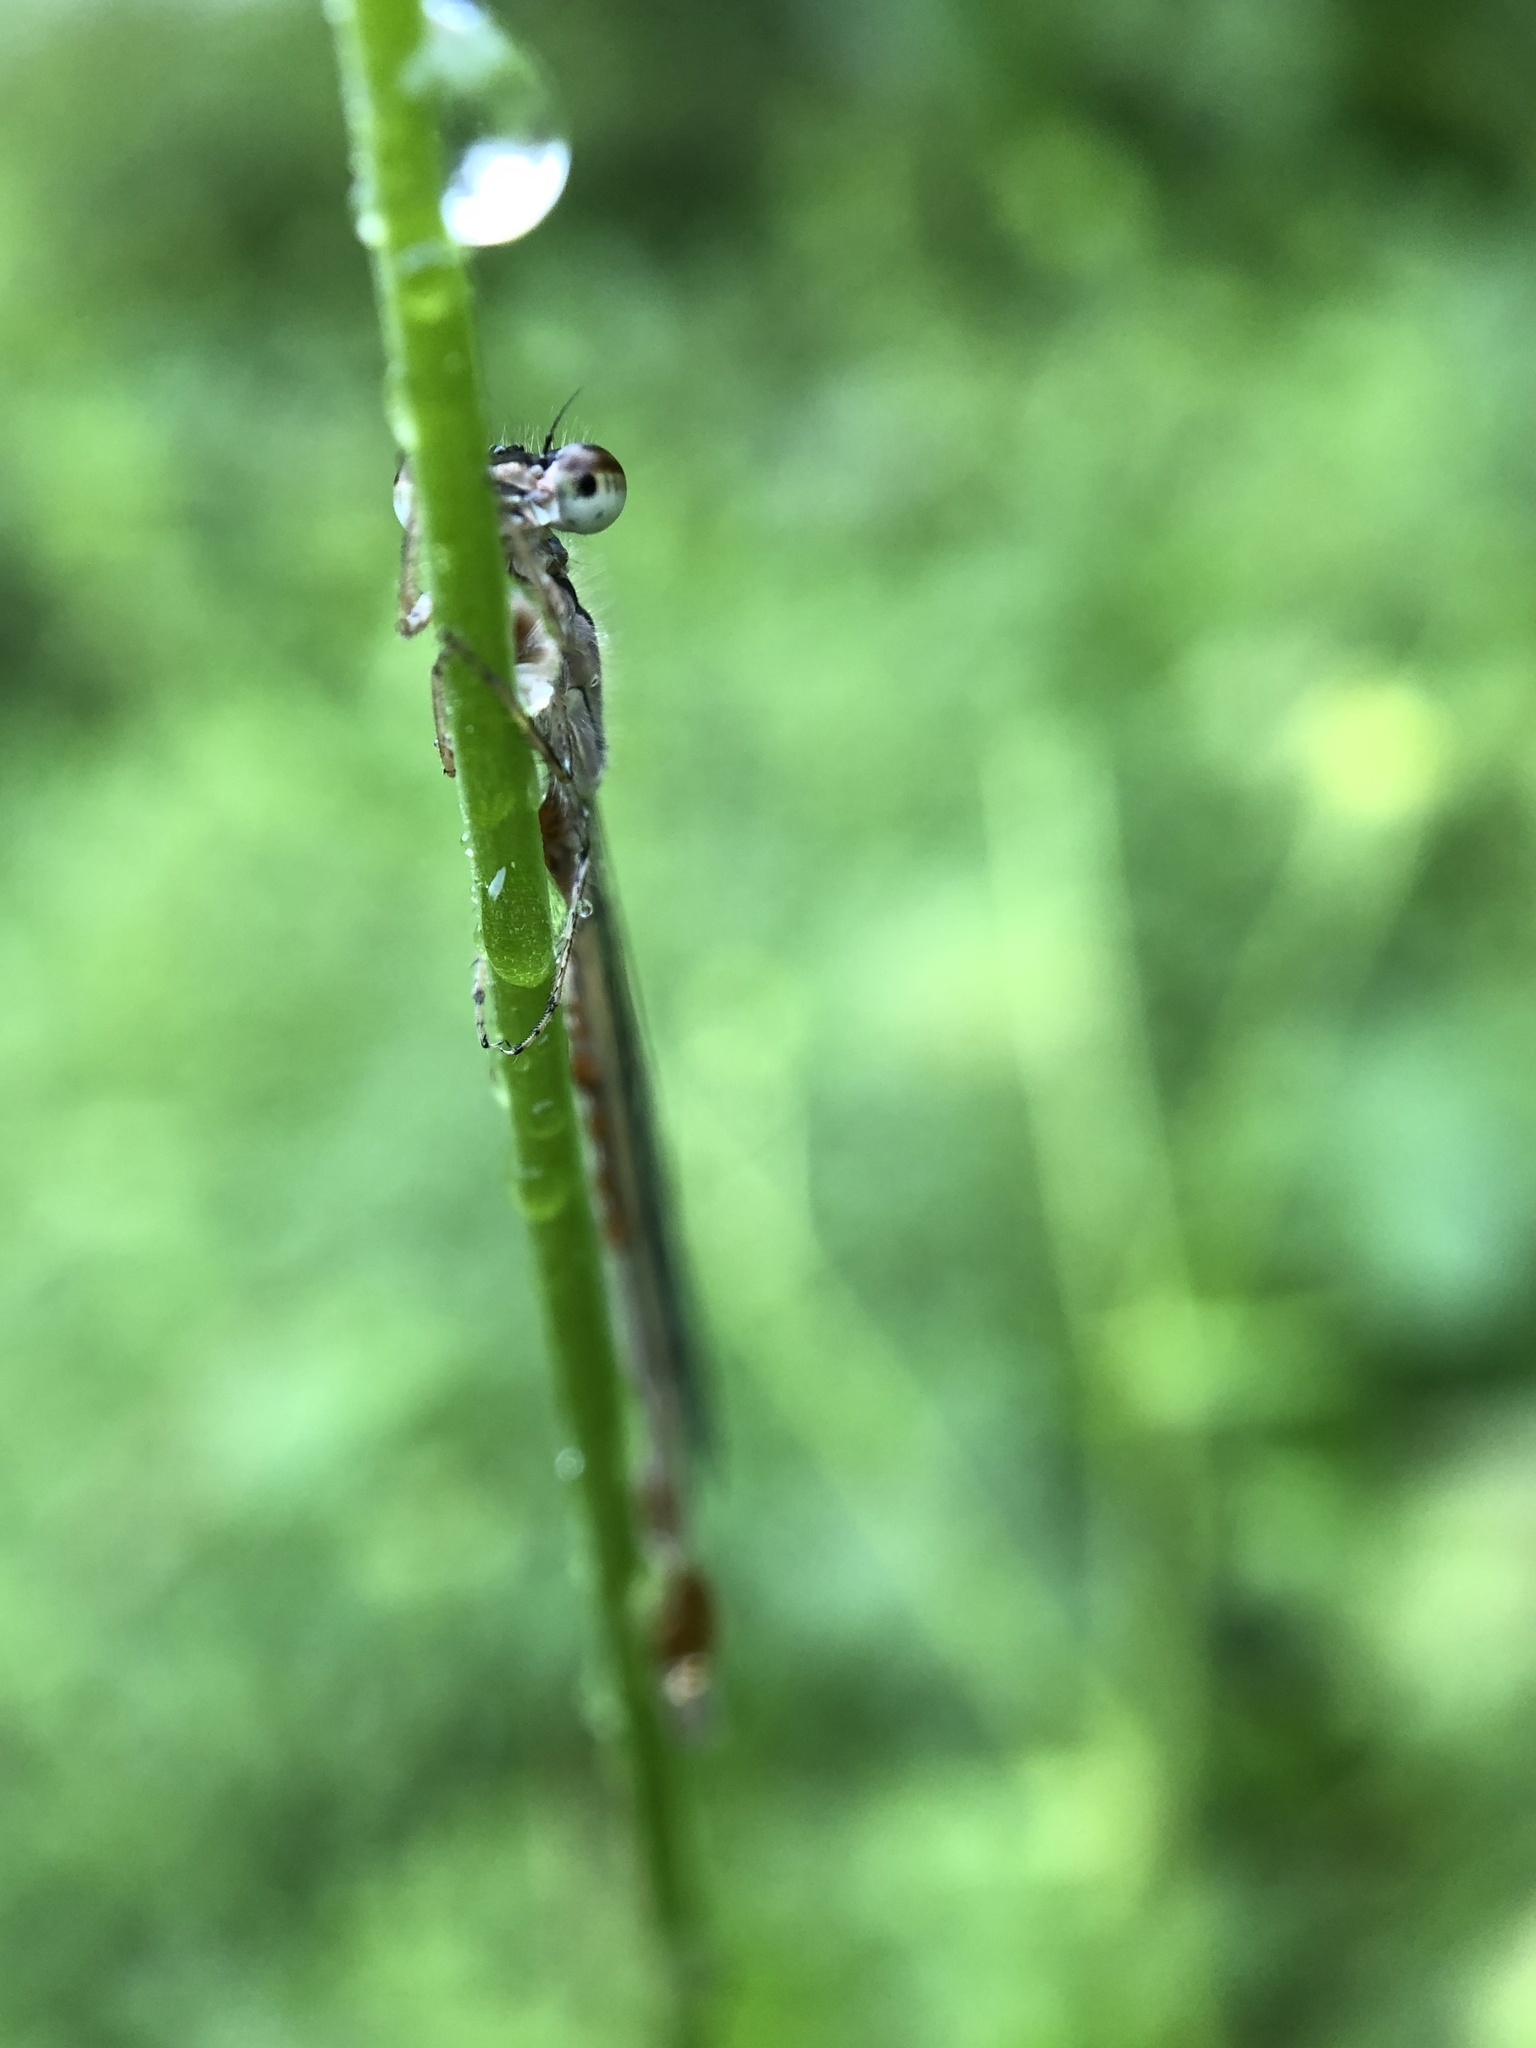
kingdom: Animalia
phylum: Arthropoda
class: Insecta
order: Odonata
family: Coenagrionidae
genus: Ischnura
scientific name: Ischnura posita
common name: Fragile forktail
